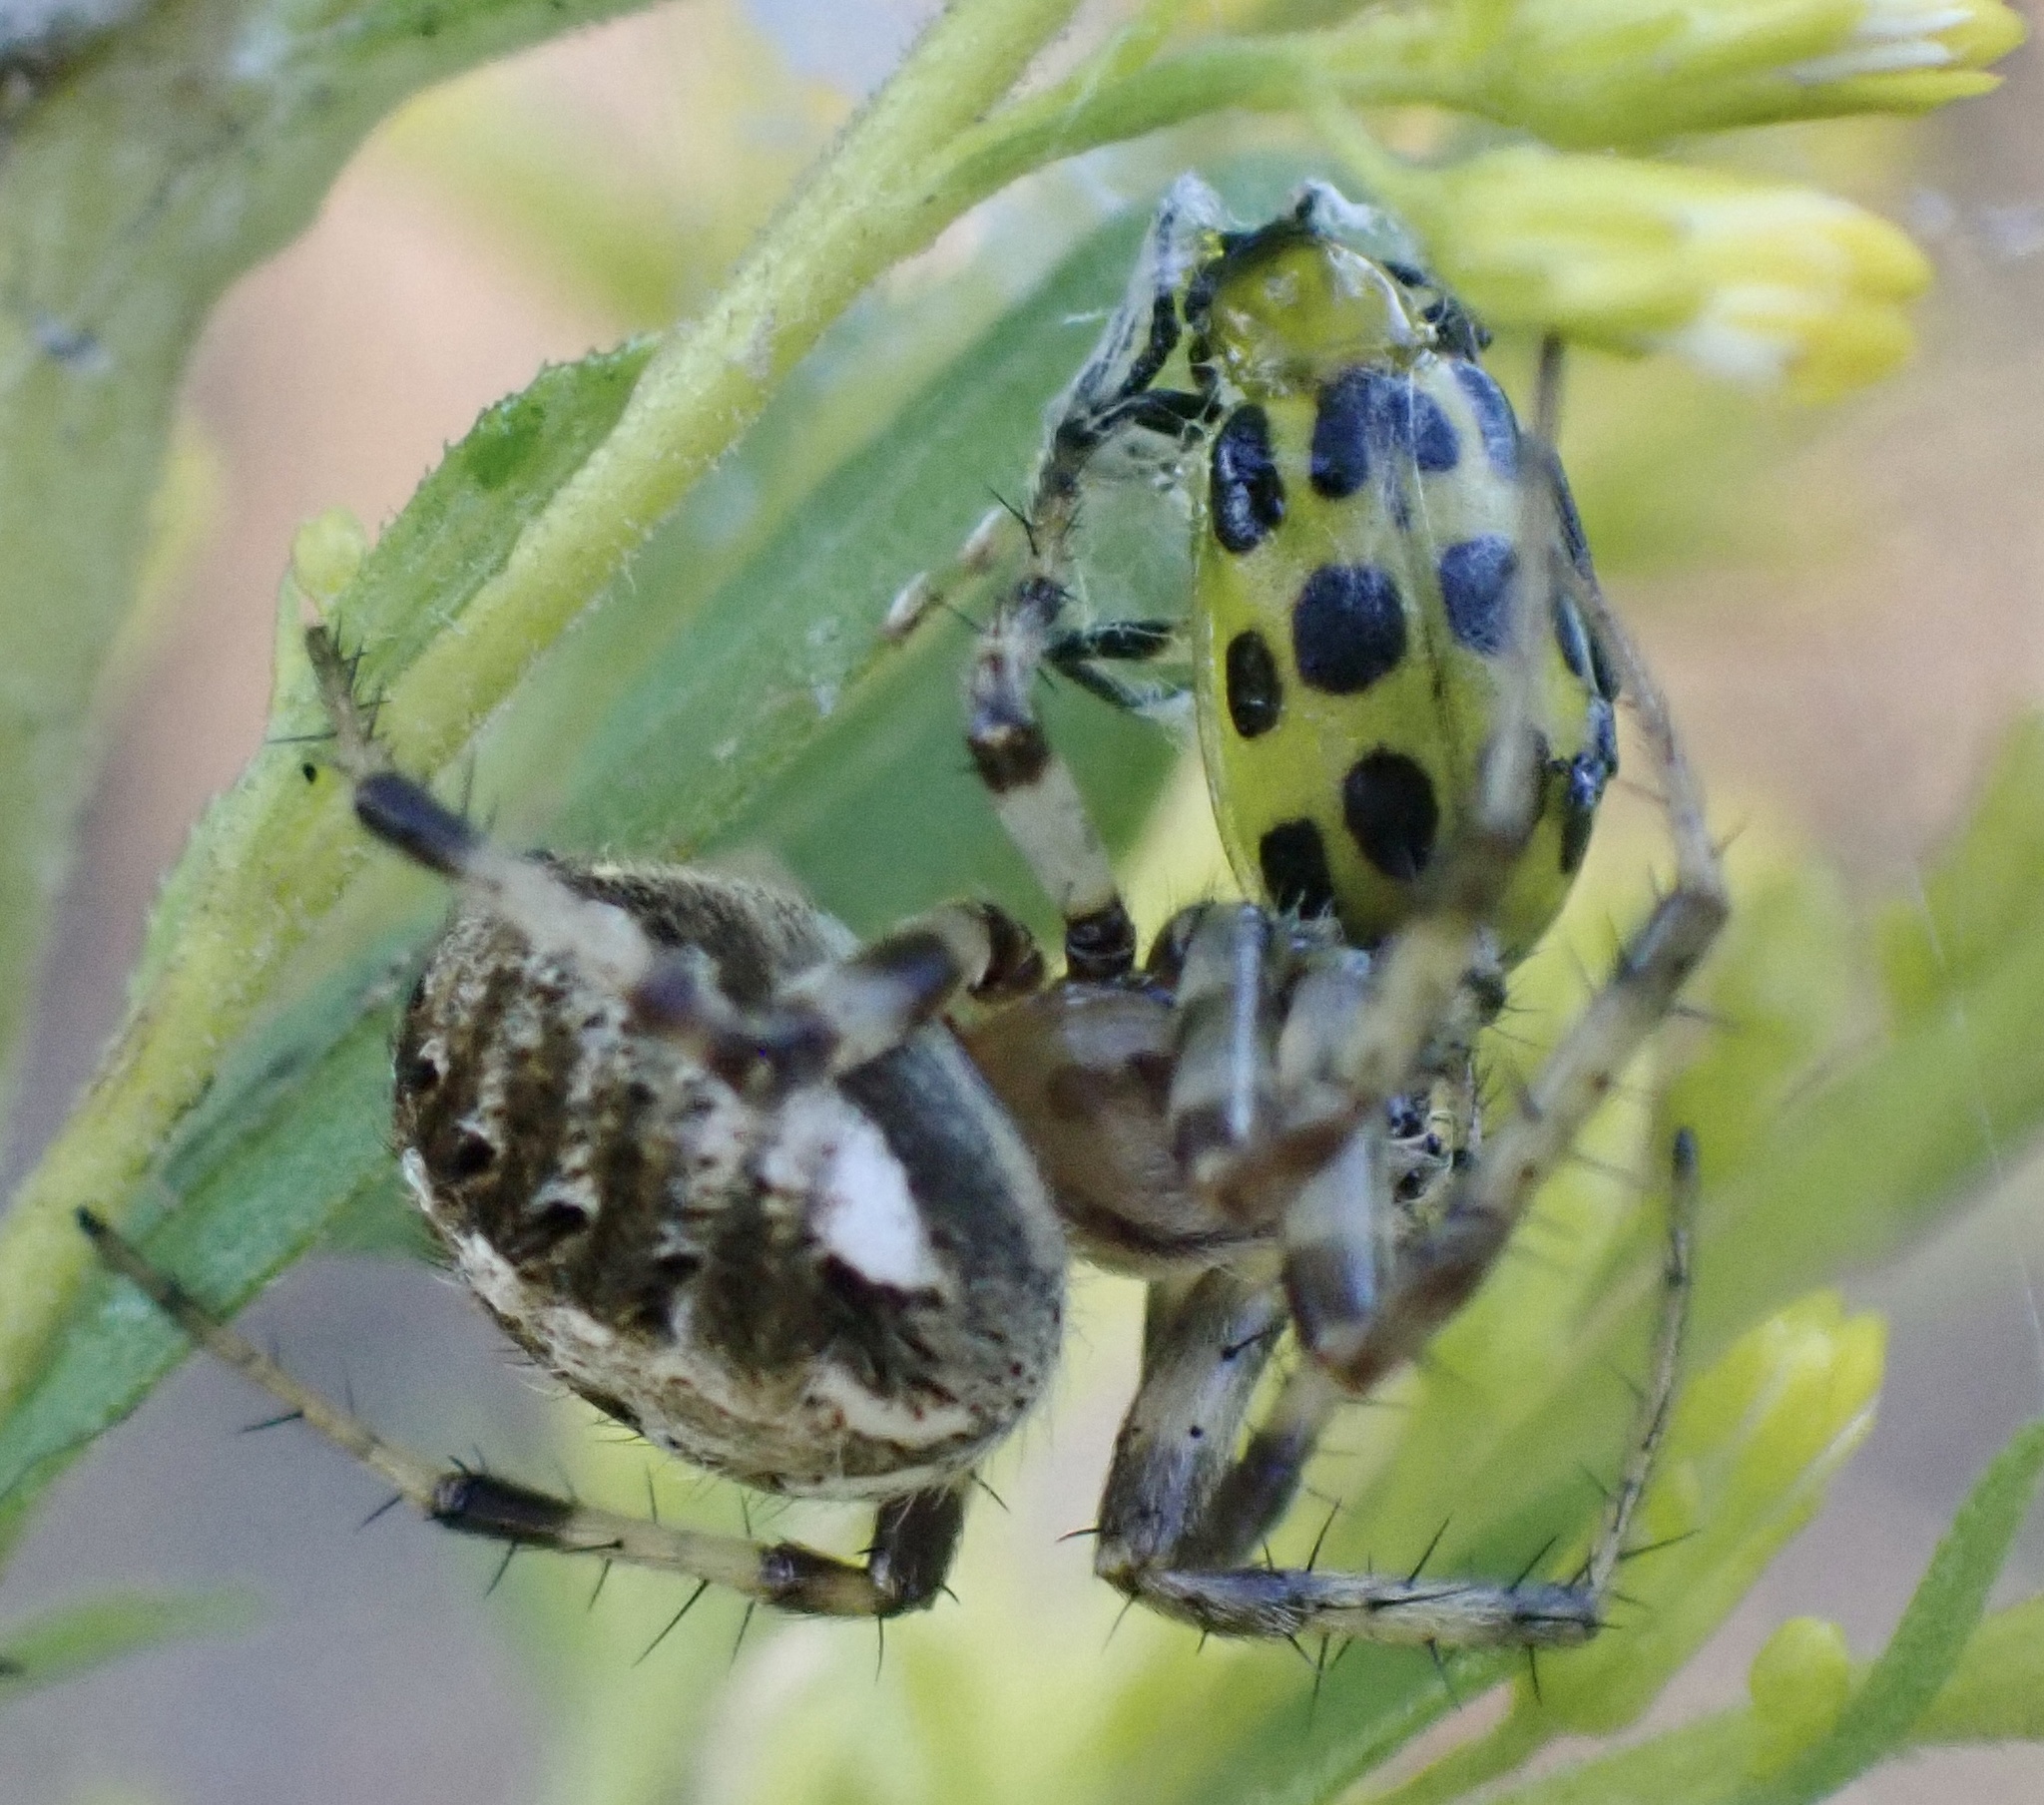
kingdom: Animalia
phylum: Arthropoda
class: Arachnida
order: Araneae
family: Araneidae
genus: Neoscona
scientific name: Neoscona arabesca
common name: Orb weavers
